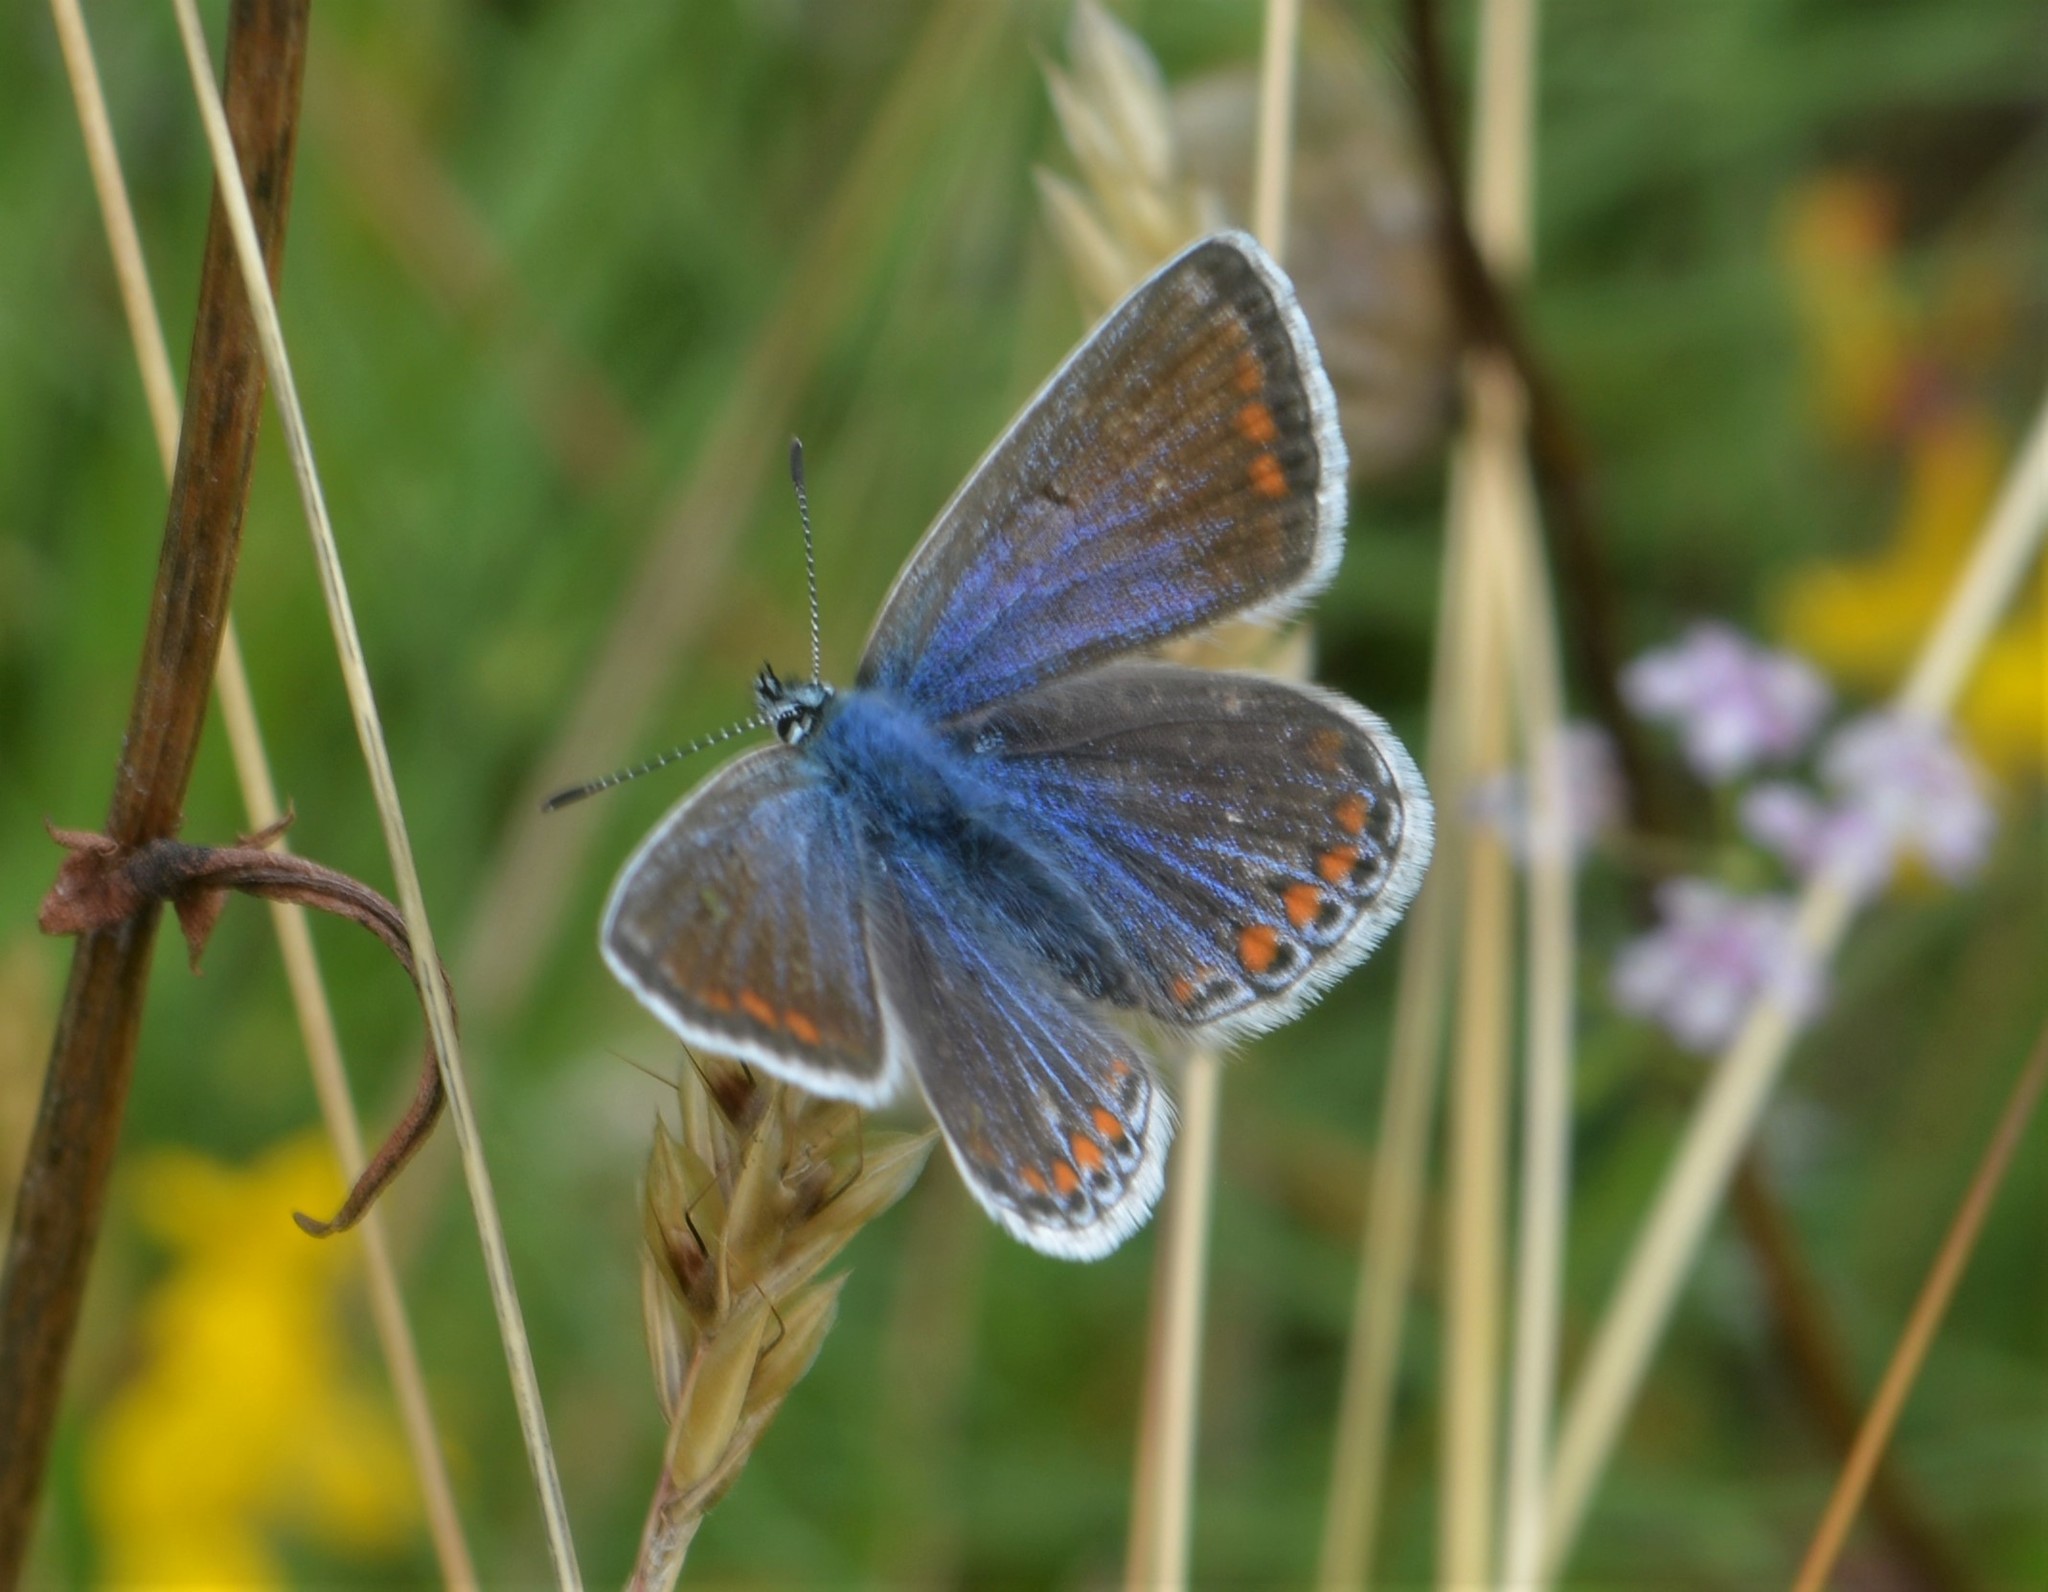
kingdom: Animalia
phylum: Arthropoda
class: Insecta
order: Lepidoptera
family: Lycaenidae
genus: Polyommatus
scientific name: Polyommatus icarus
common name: Common blue
